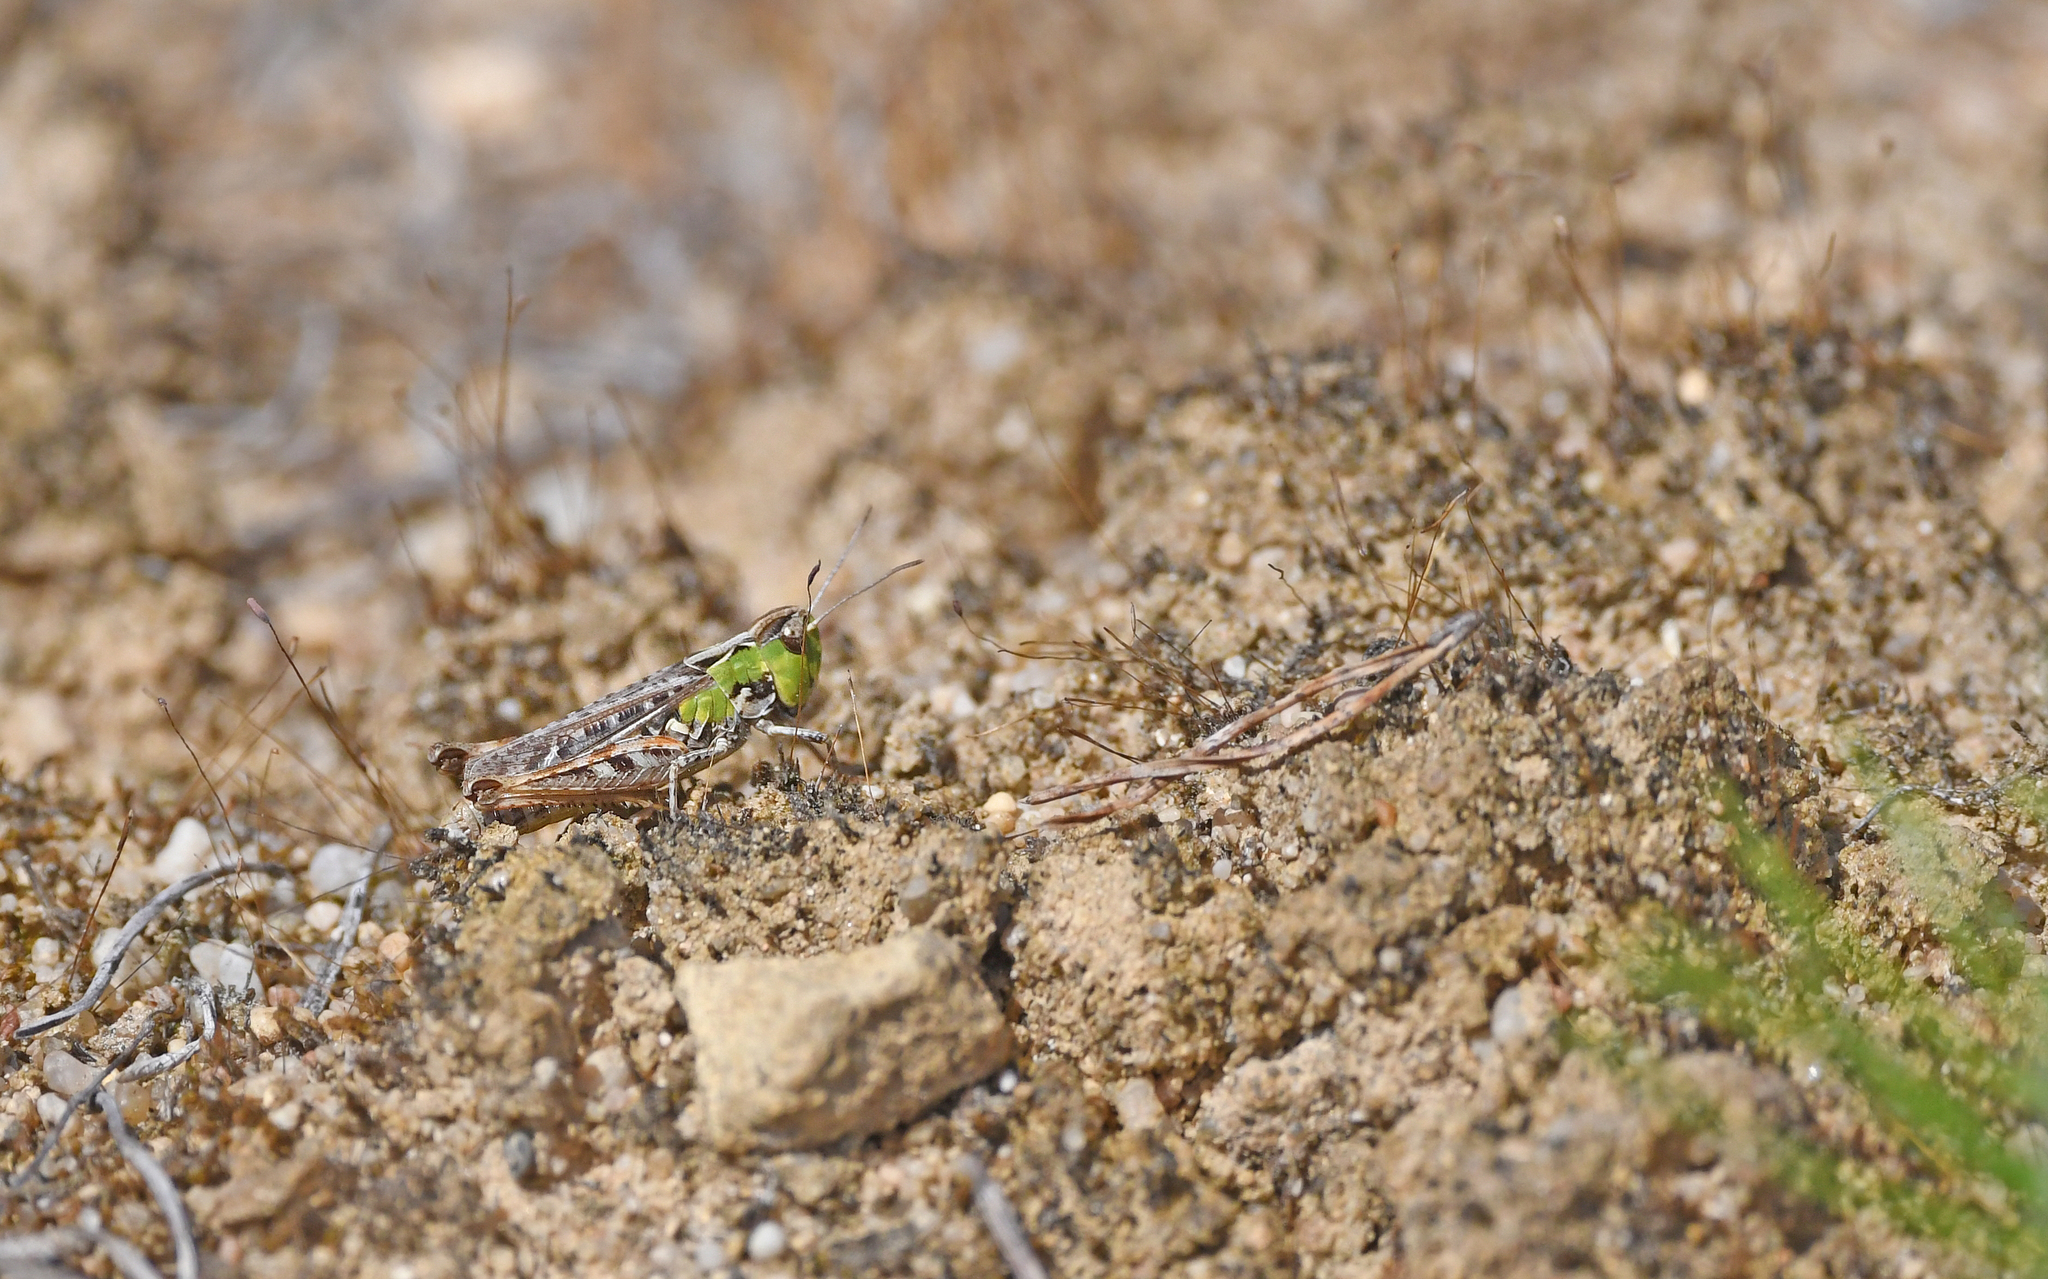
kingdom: Animalia
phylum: Arthropoda
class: Insecta
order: Orthoptera
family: Acrididae
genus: Myrmeleotettix
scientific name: Myrmeleotettix maculatus
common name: Mottled grasshopper
